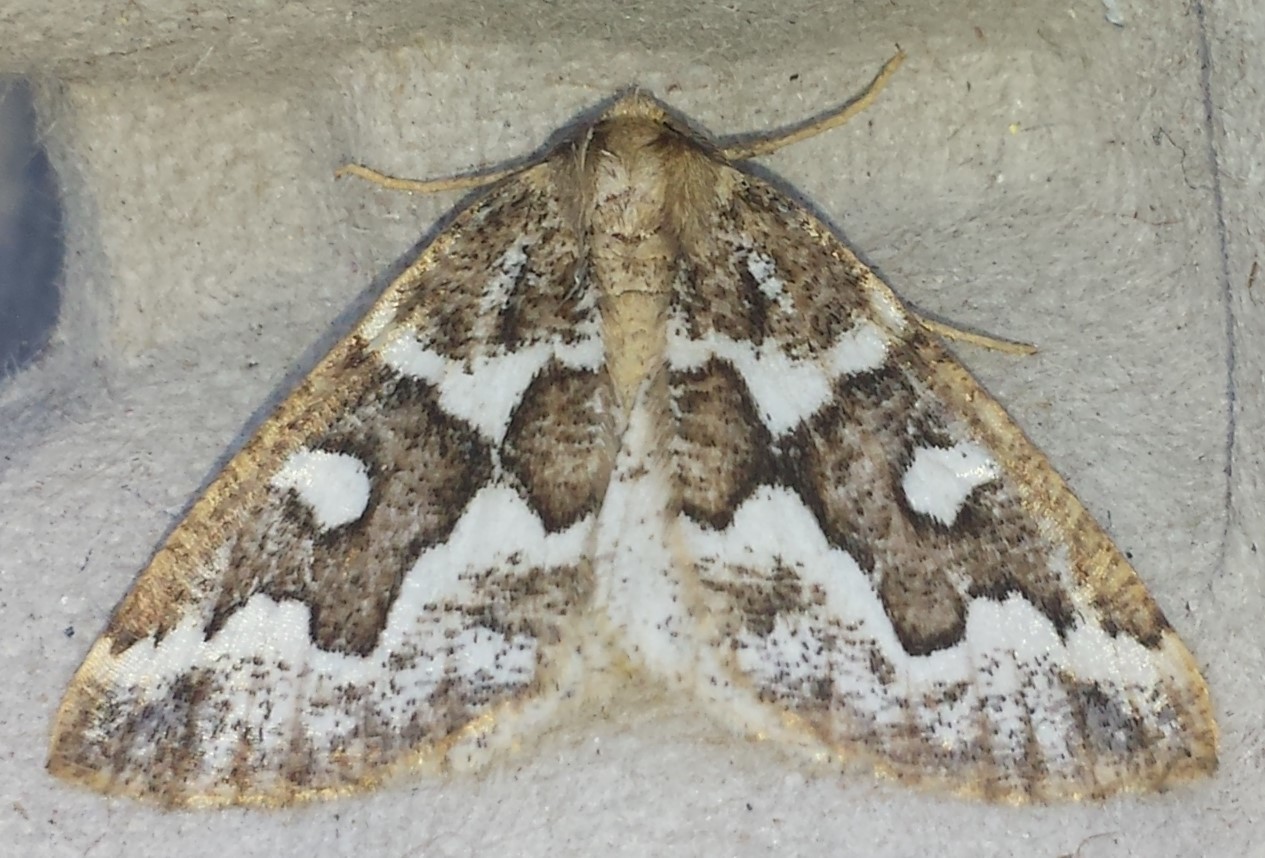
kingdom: Animalia
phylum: Arthropoda
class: Insecta
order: Lepidoptera
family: Geometridae
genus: Caripeta
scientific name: Caripeta divisata
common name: Gray spruce looper
